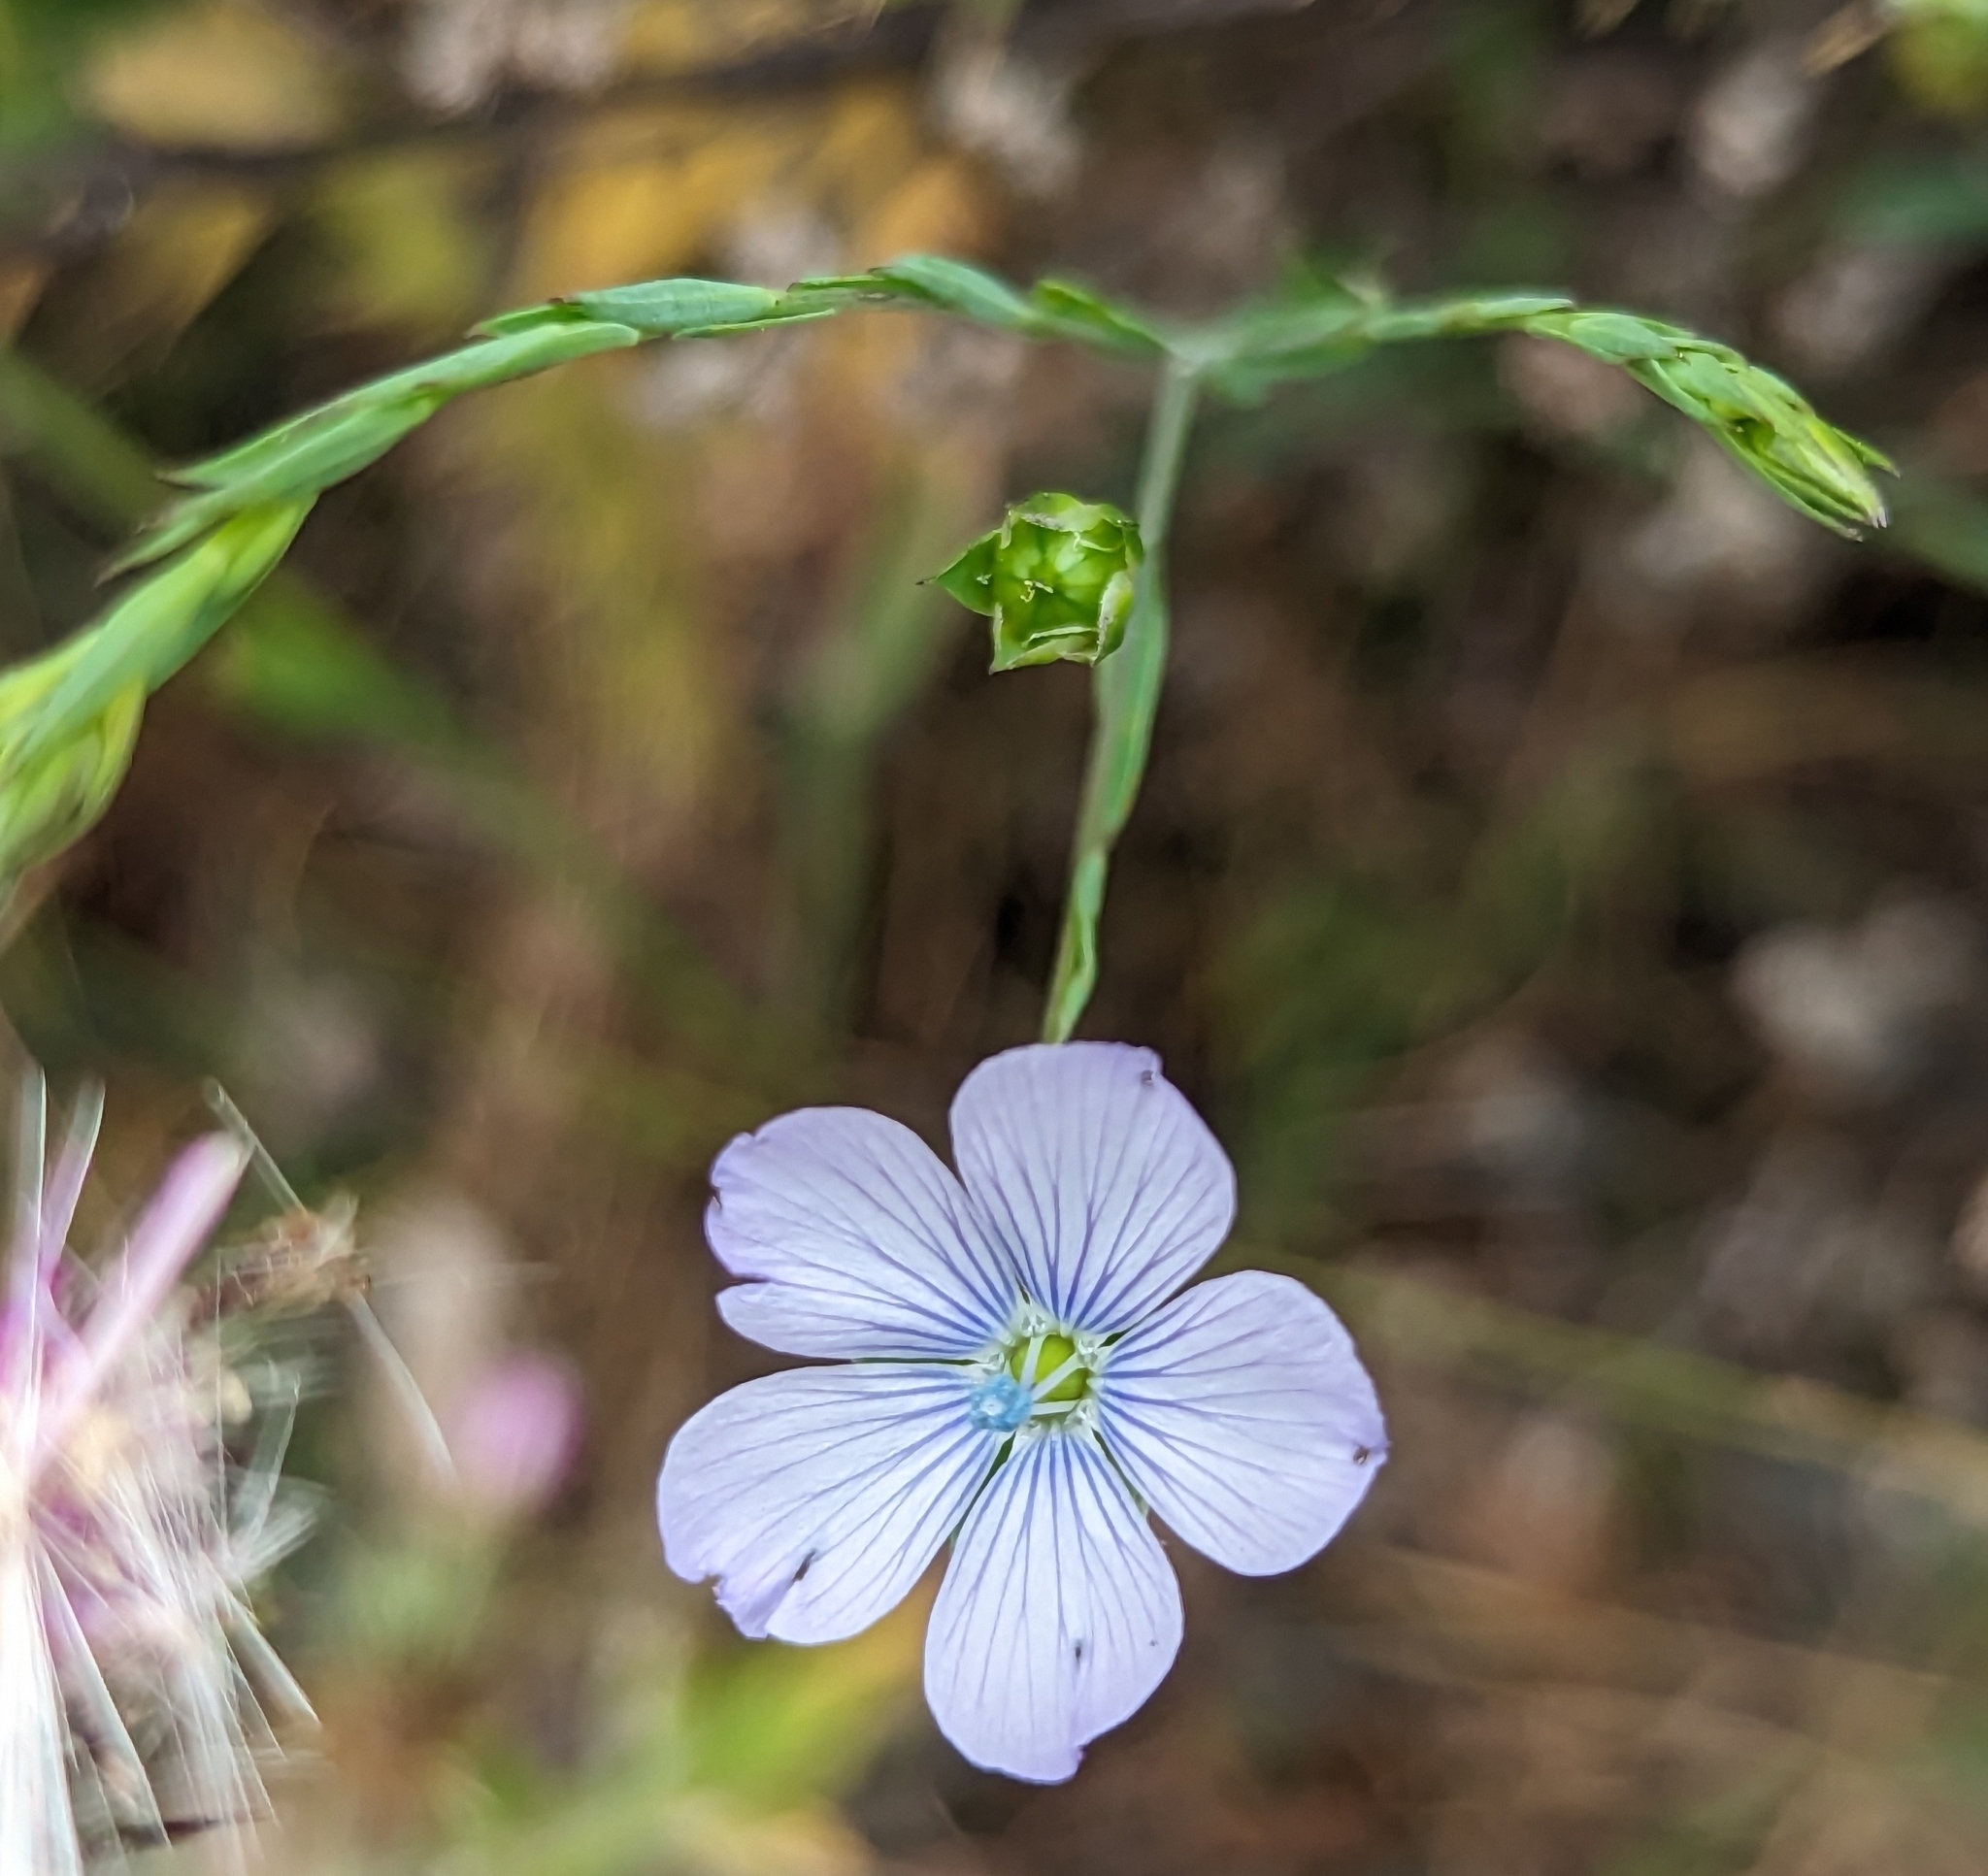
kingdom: Plantae
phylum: Tracheophyta
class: Magnoliopsida
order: Malpighiales
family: Linaceae
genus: Linum
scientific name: Linum bienne
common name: Pale flax
